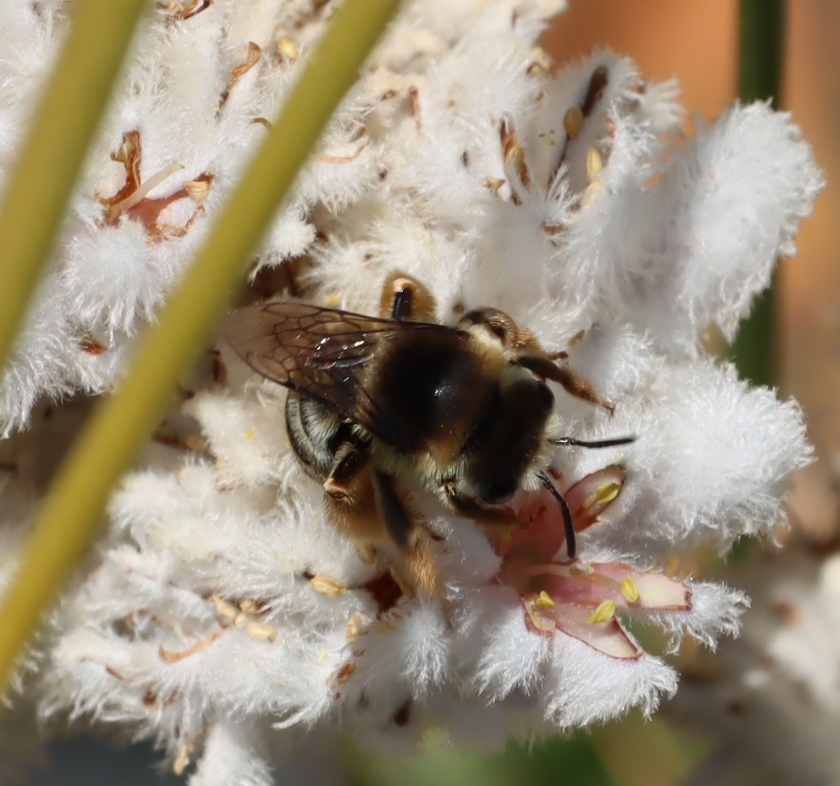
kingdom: Plantae
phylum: Tracheophyta
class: Liliopsida
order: Asparagales
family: Lanariaceae
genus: Lanaria
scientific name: Lanaria lanata
